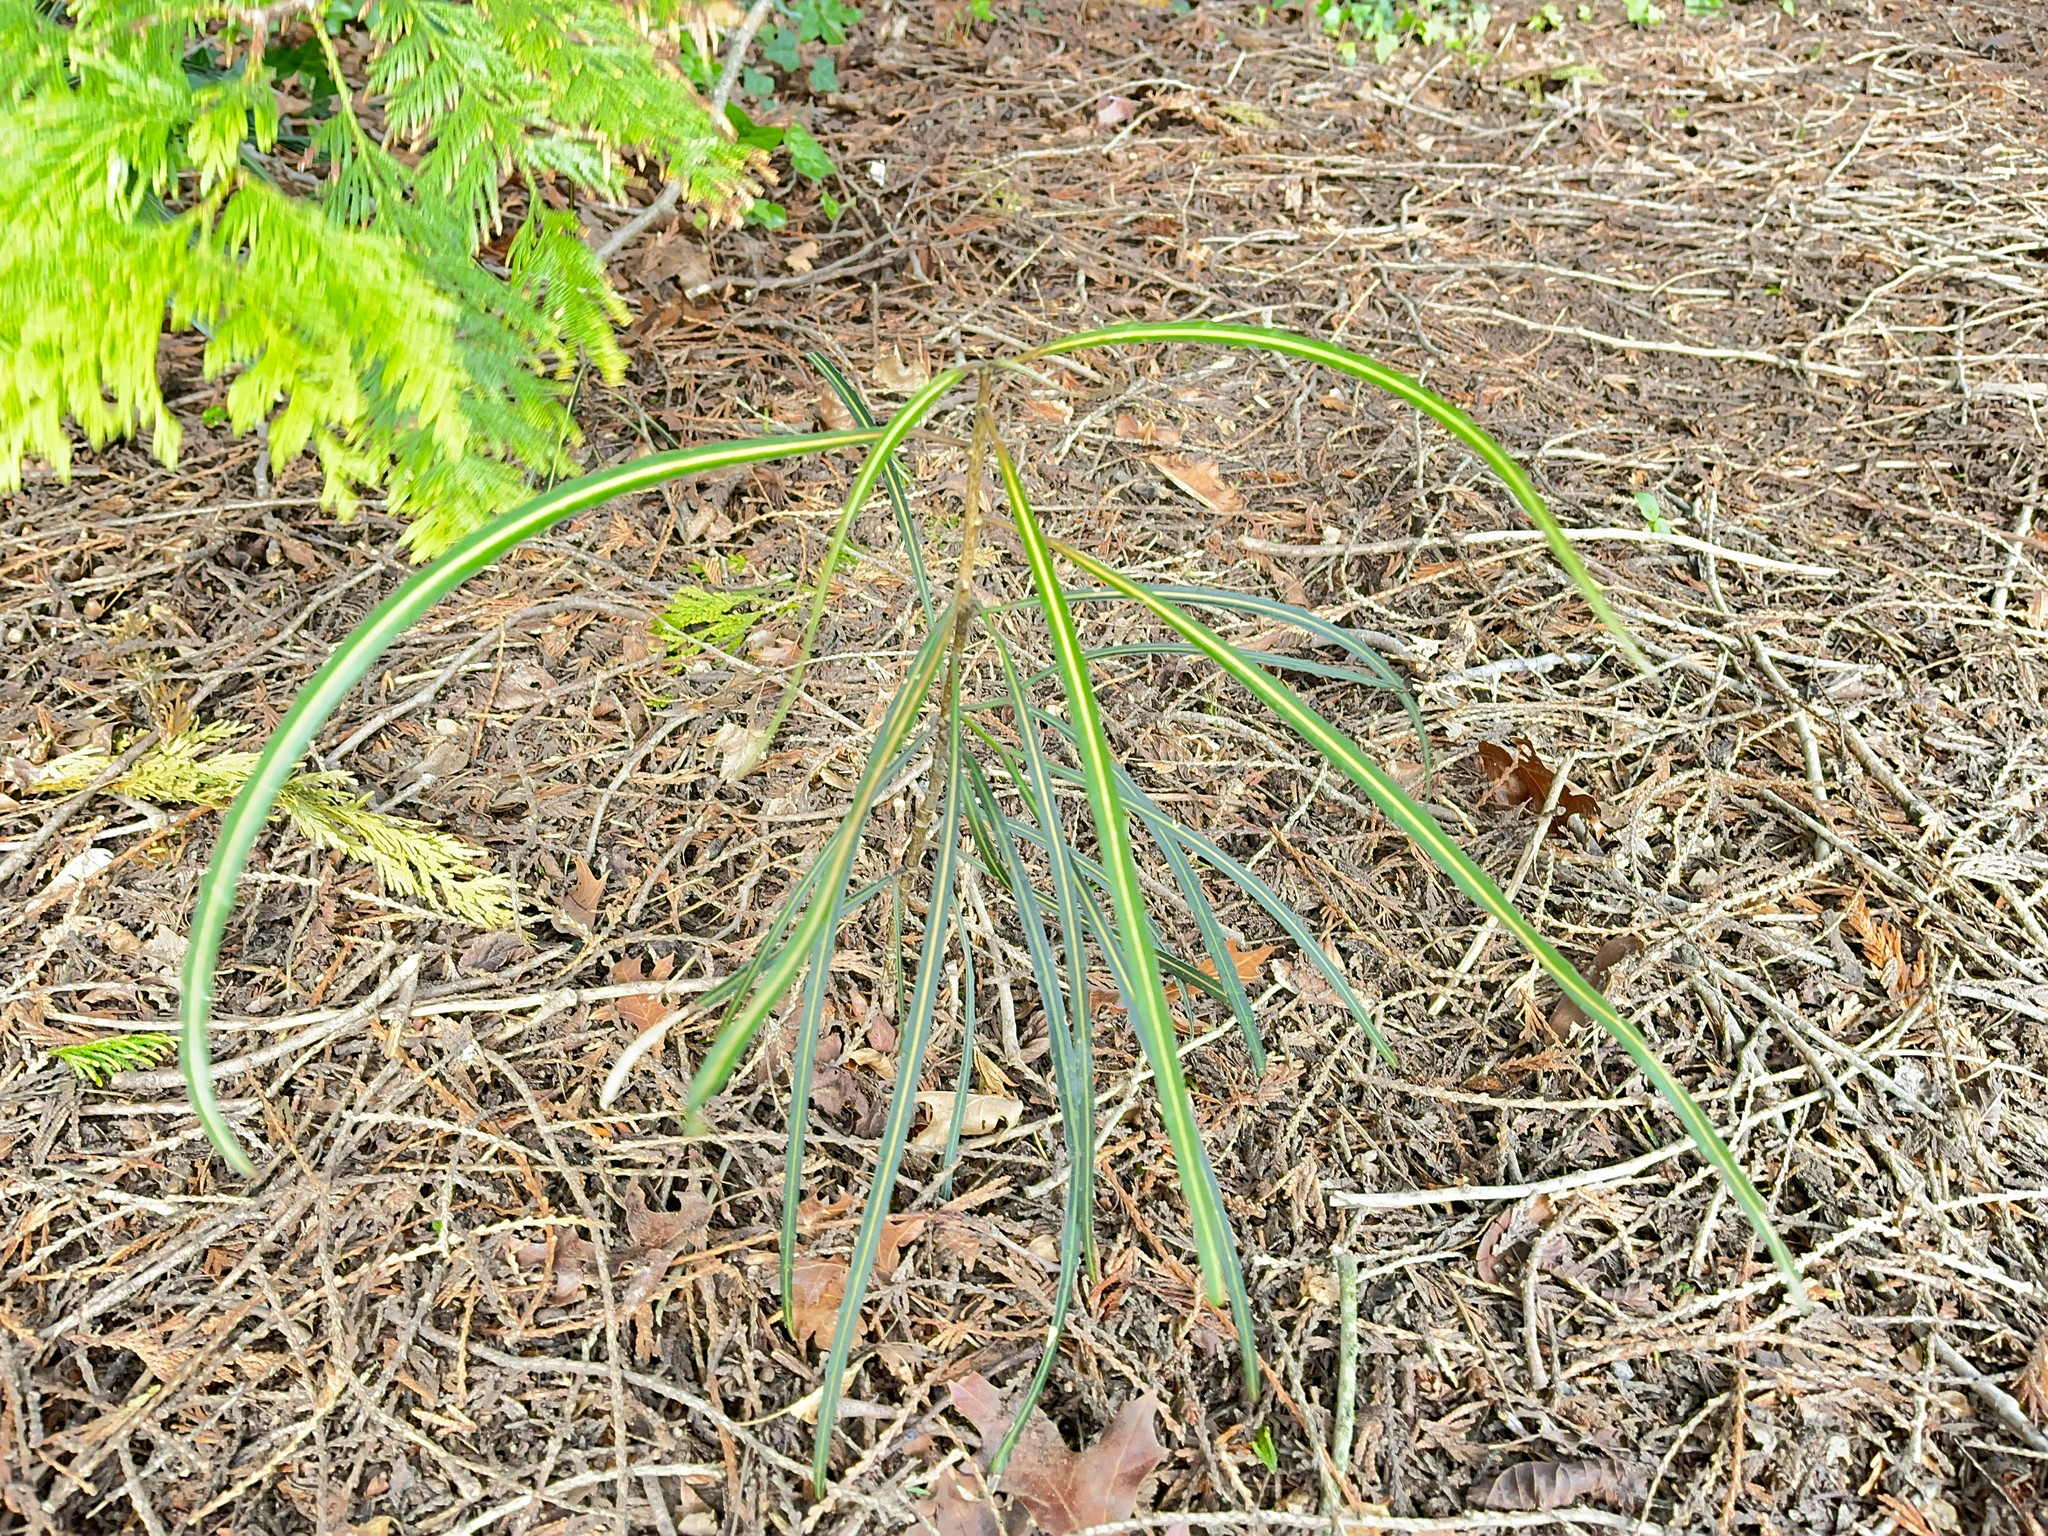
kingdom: Plantae
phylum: Tracheophyta
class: Magnoliopsida
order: Apiales
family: Araliaceae
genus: Pseudopanax
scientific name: Pseudopanax
